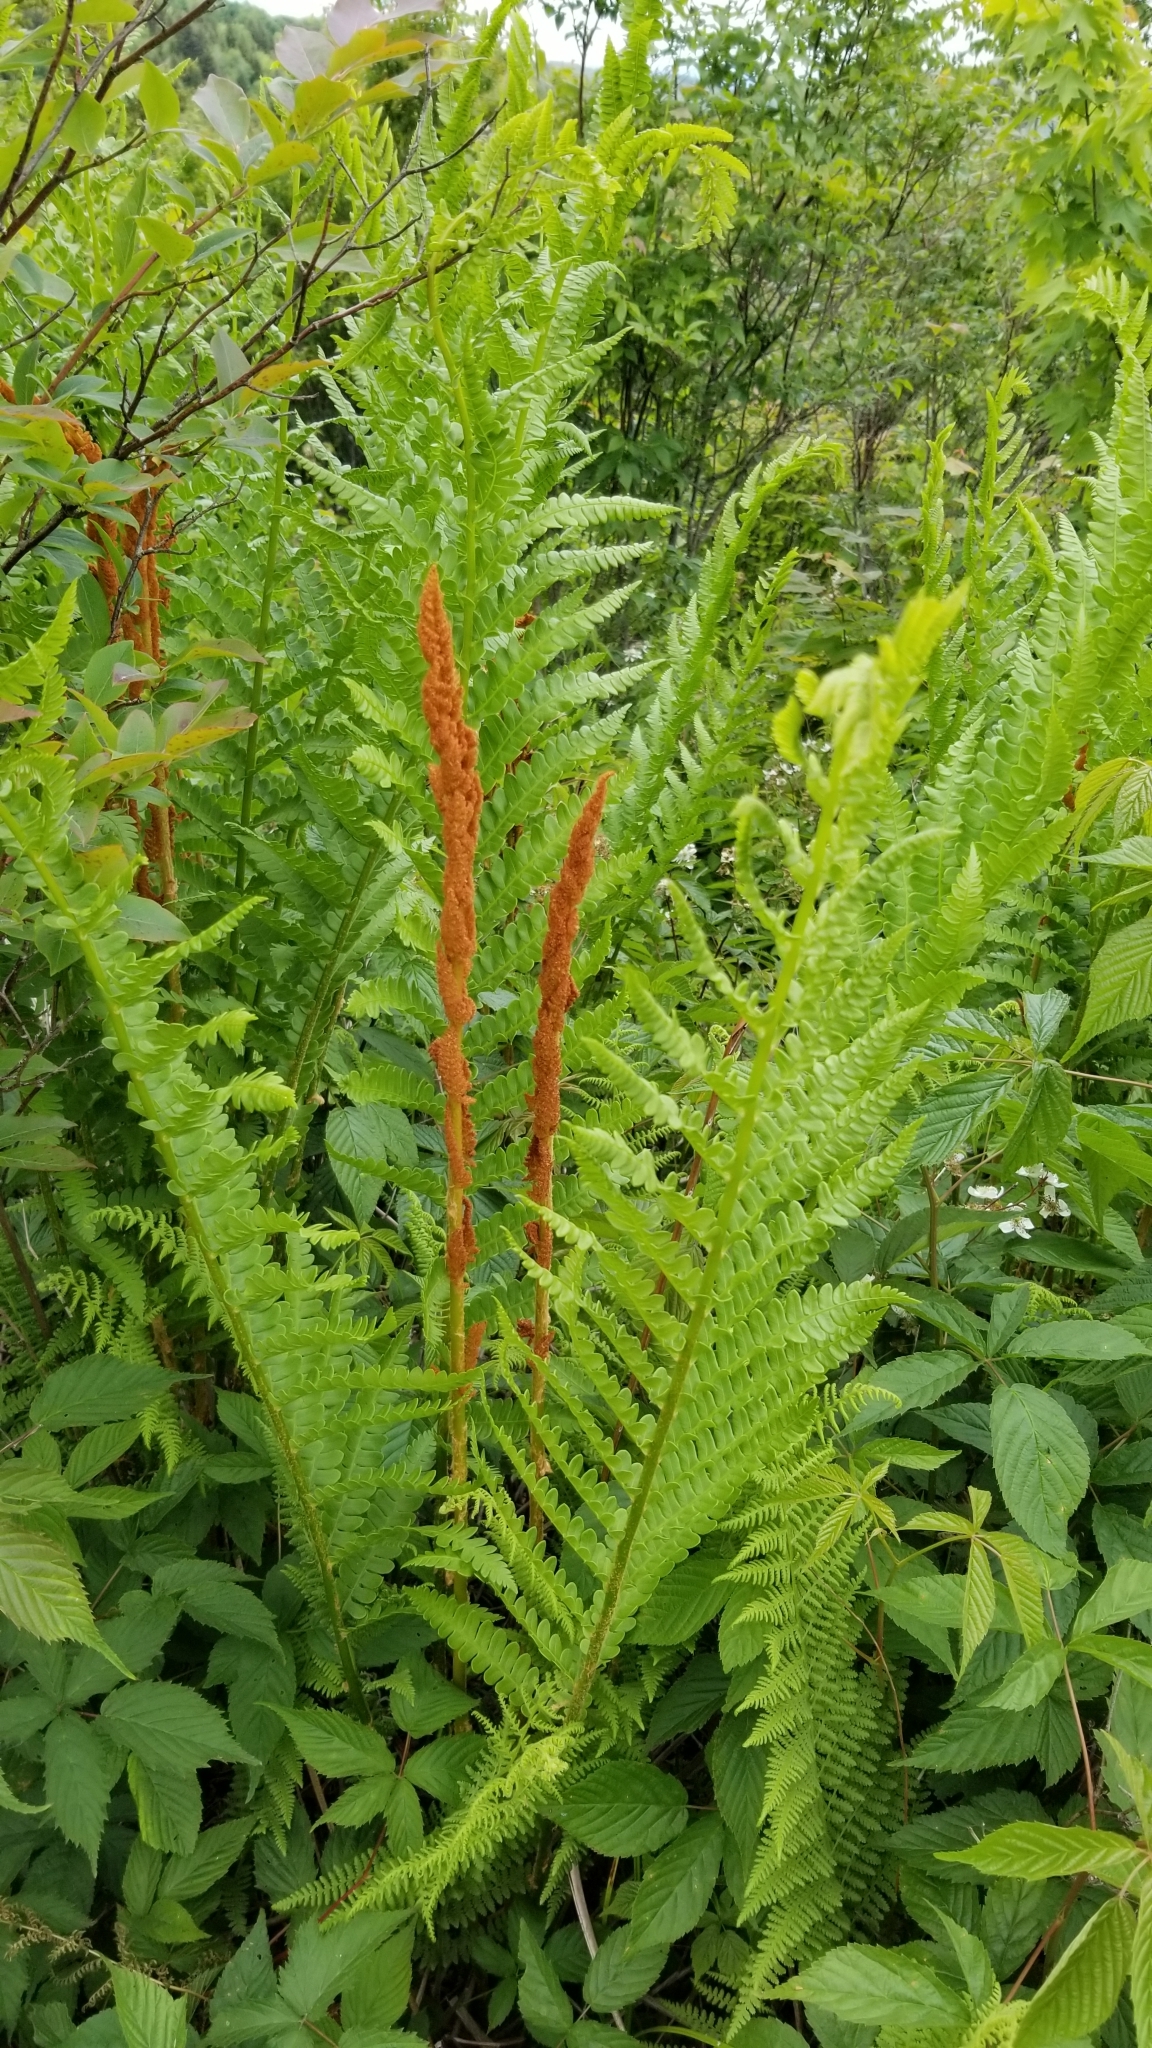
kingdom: Plantae
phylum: Tracheophyta
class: Polypodiopsida
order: Osmundales
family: Osmundaceae
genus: Osmundastrum
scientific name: Osmundastrum cinnamomeum
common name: Cinnamon fern
